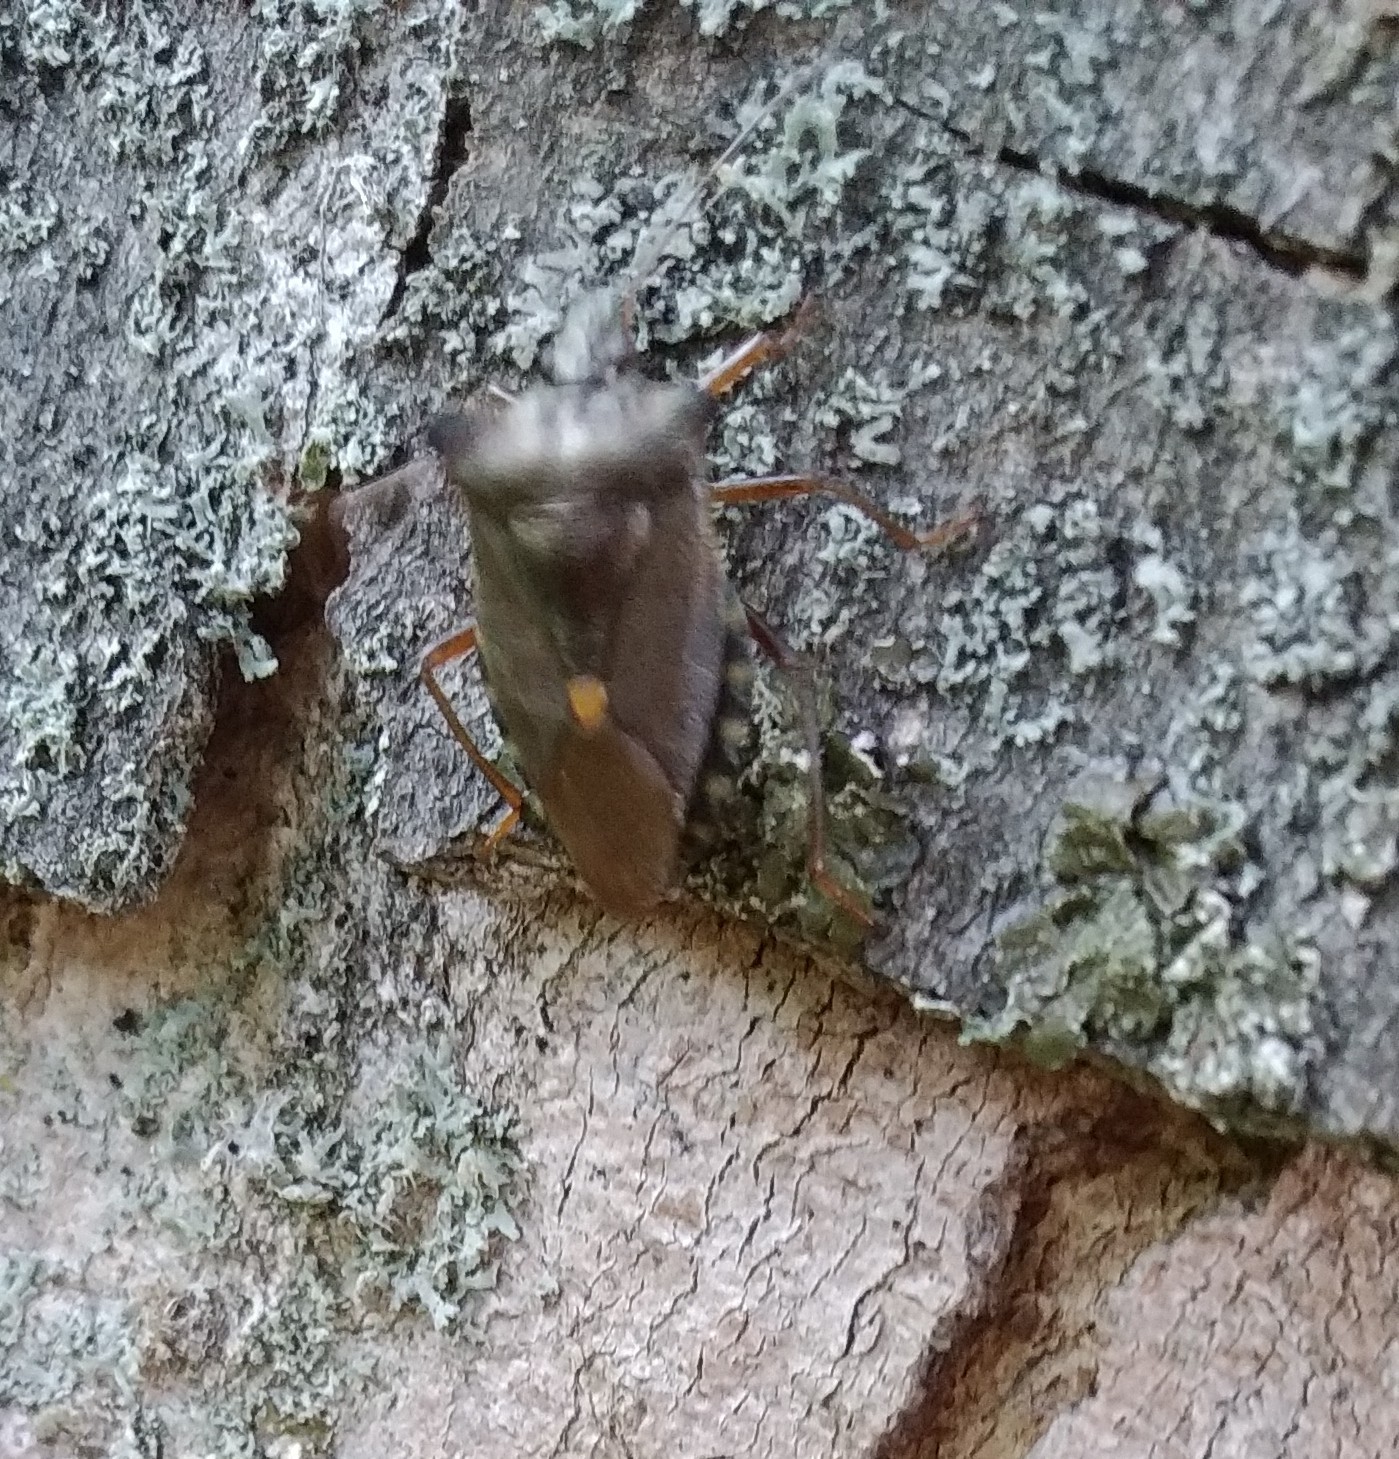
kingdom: Animalia
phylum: Arthropoda
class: Insecta
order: Hemiptera
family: Pentatomidae
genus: Pentatoma
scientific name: Pentatoma rufipes
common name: Forest bug
